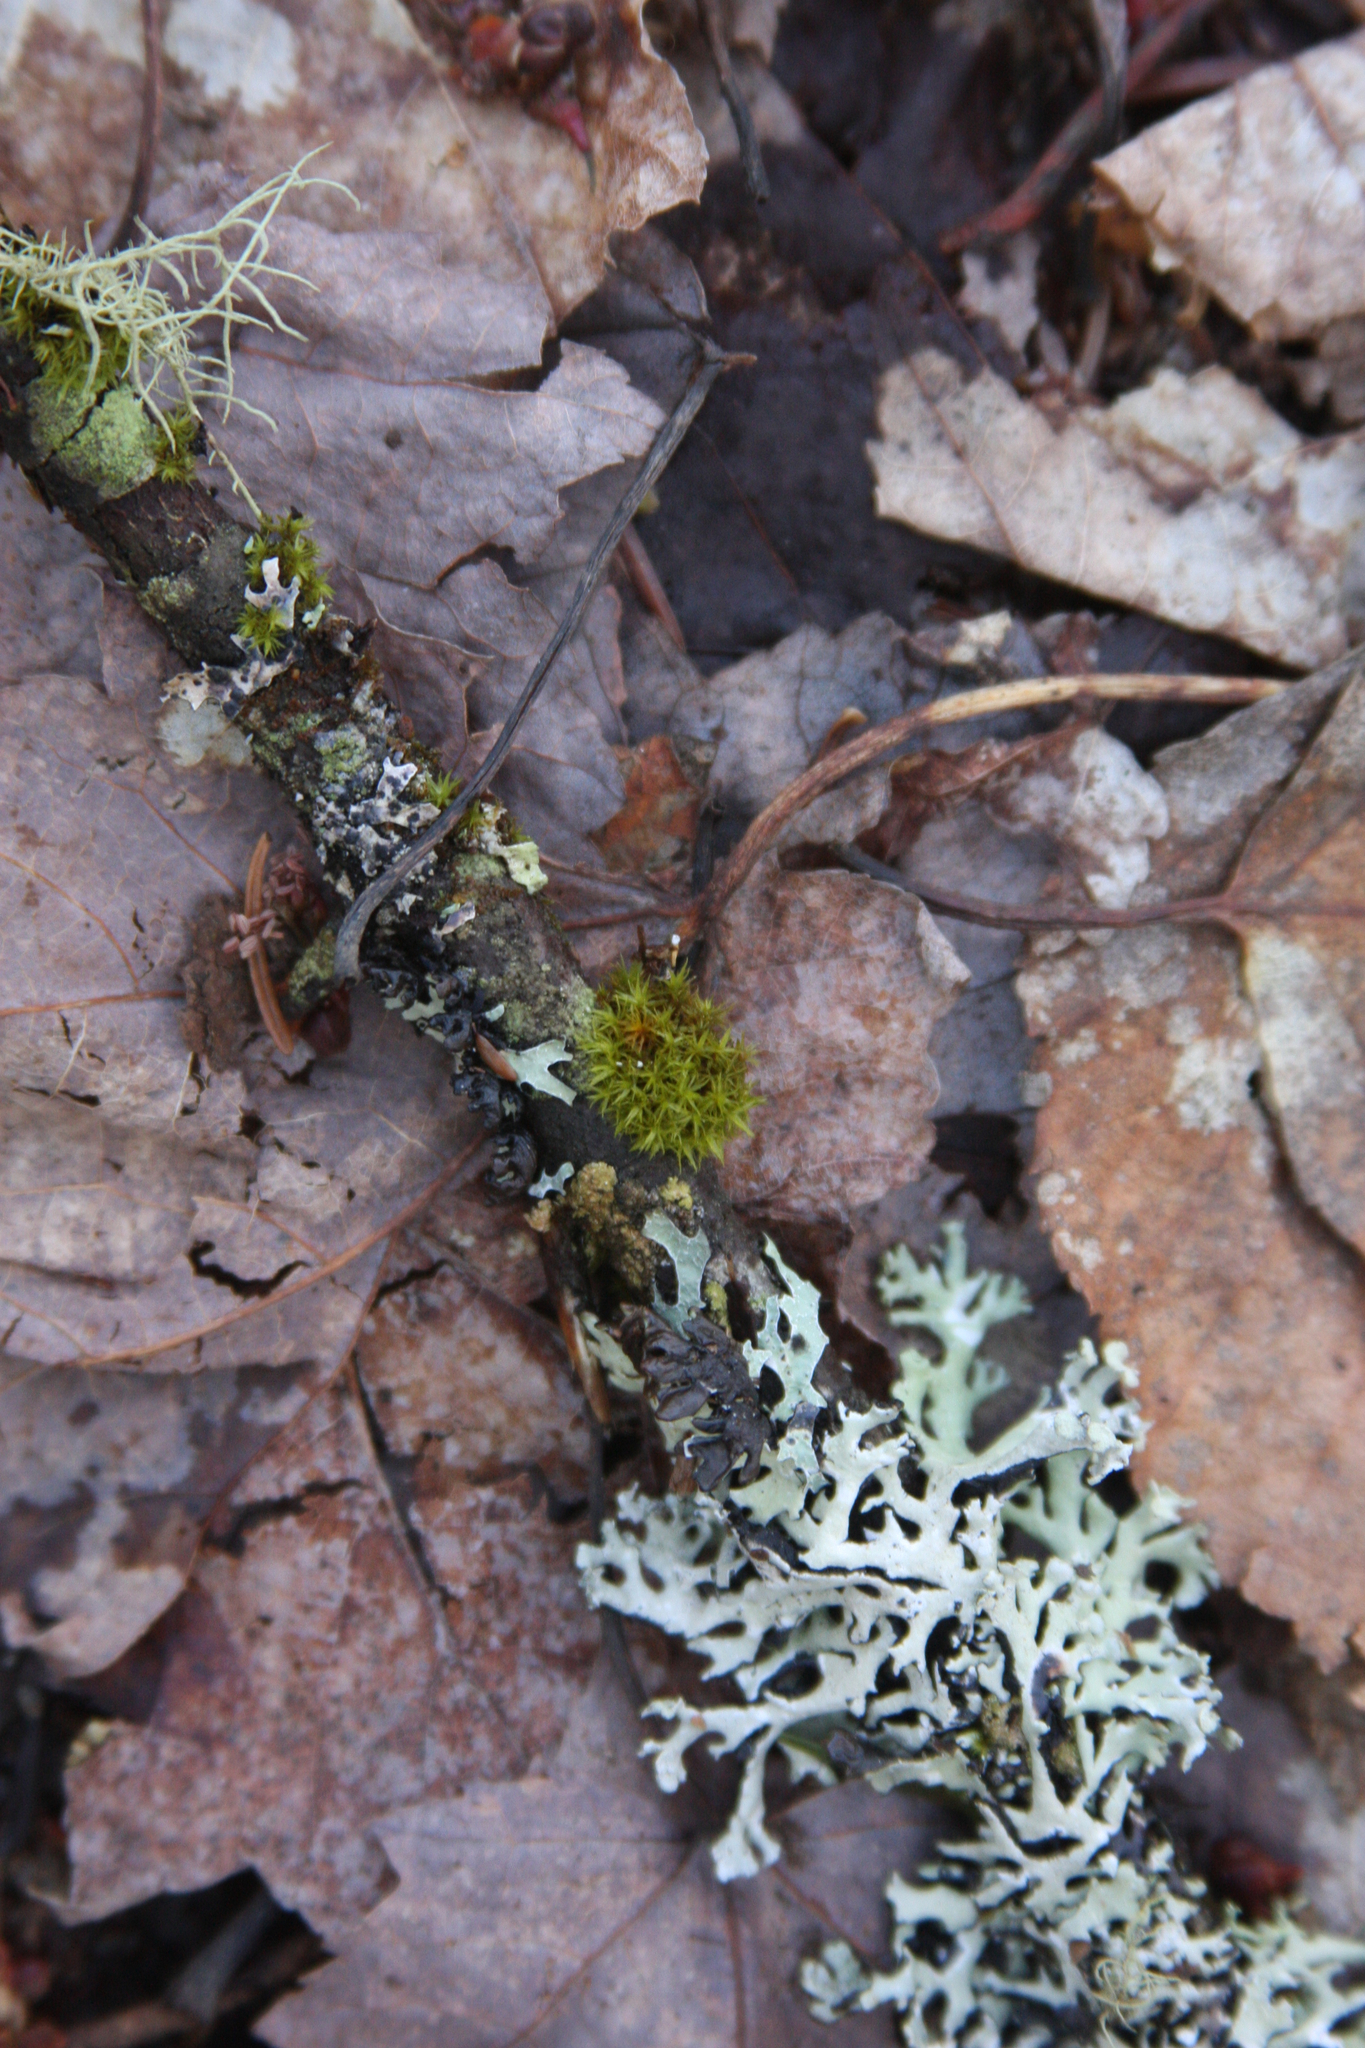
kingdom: Plantae
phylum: Bryophyta
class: Bryopsida
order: Orthotrichales
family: Orthotrichaceae
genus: Ulota
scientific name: Ulota crispa
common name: Crisped pincushion moss
